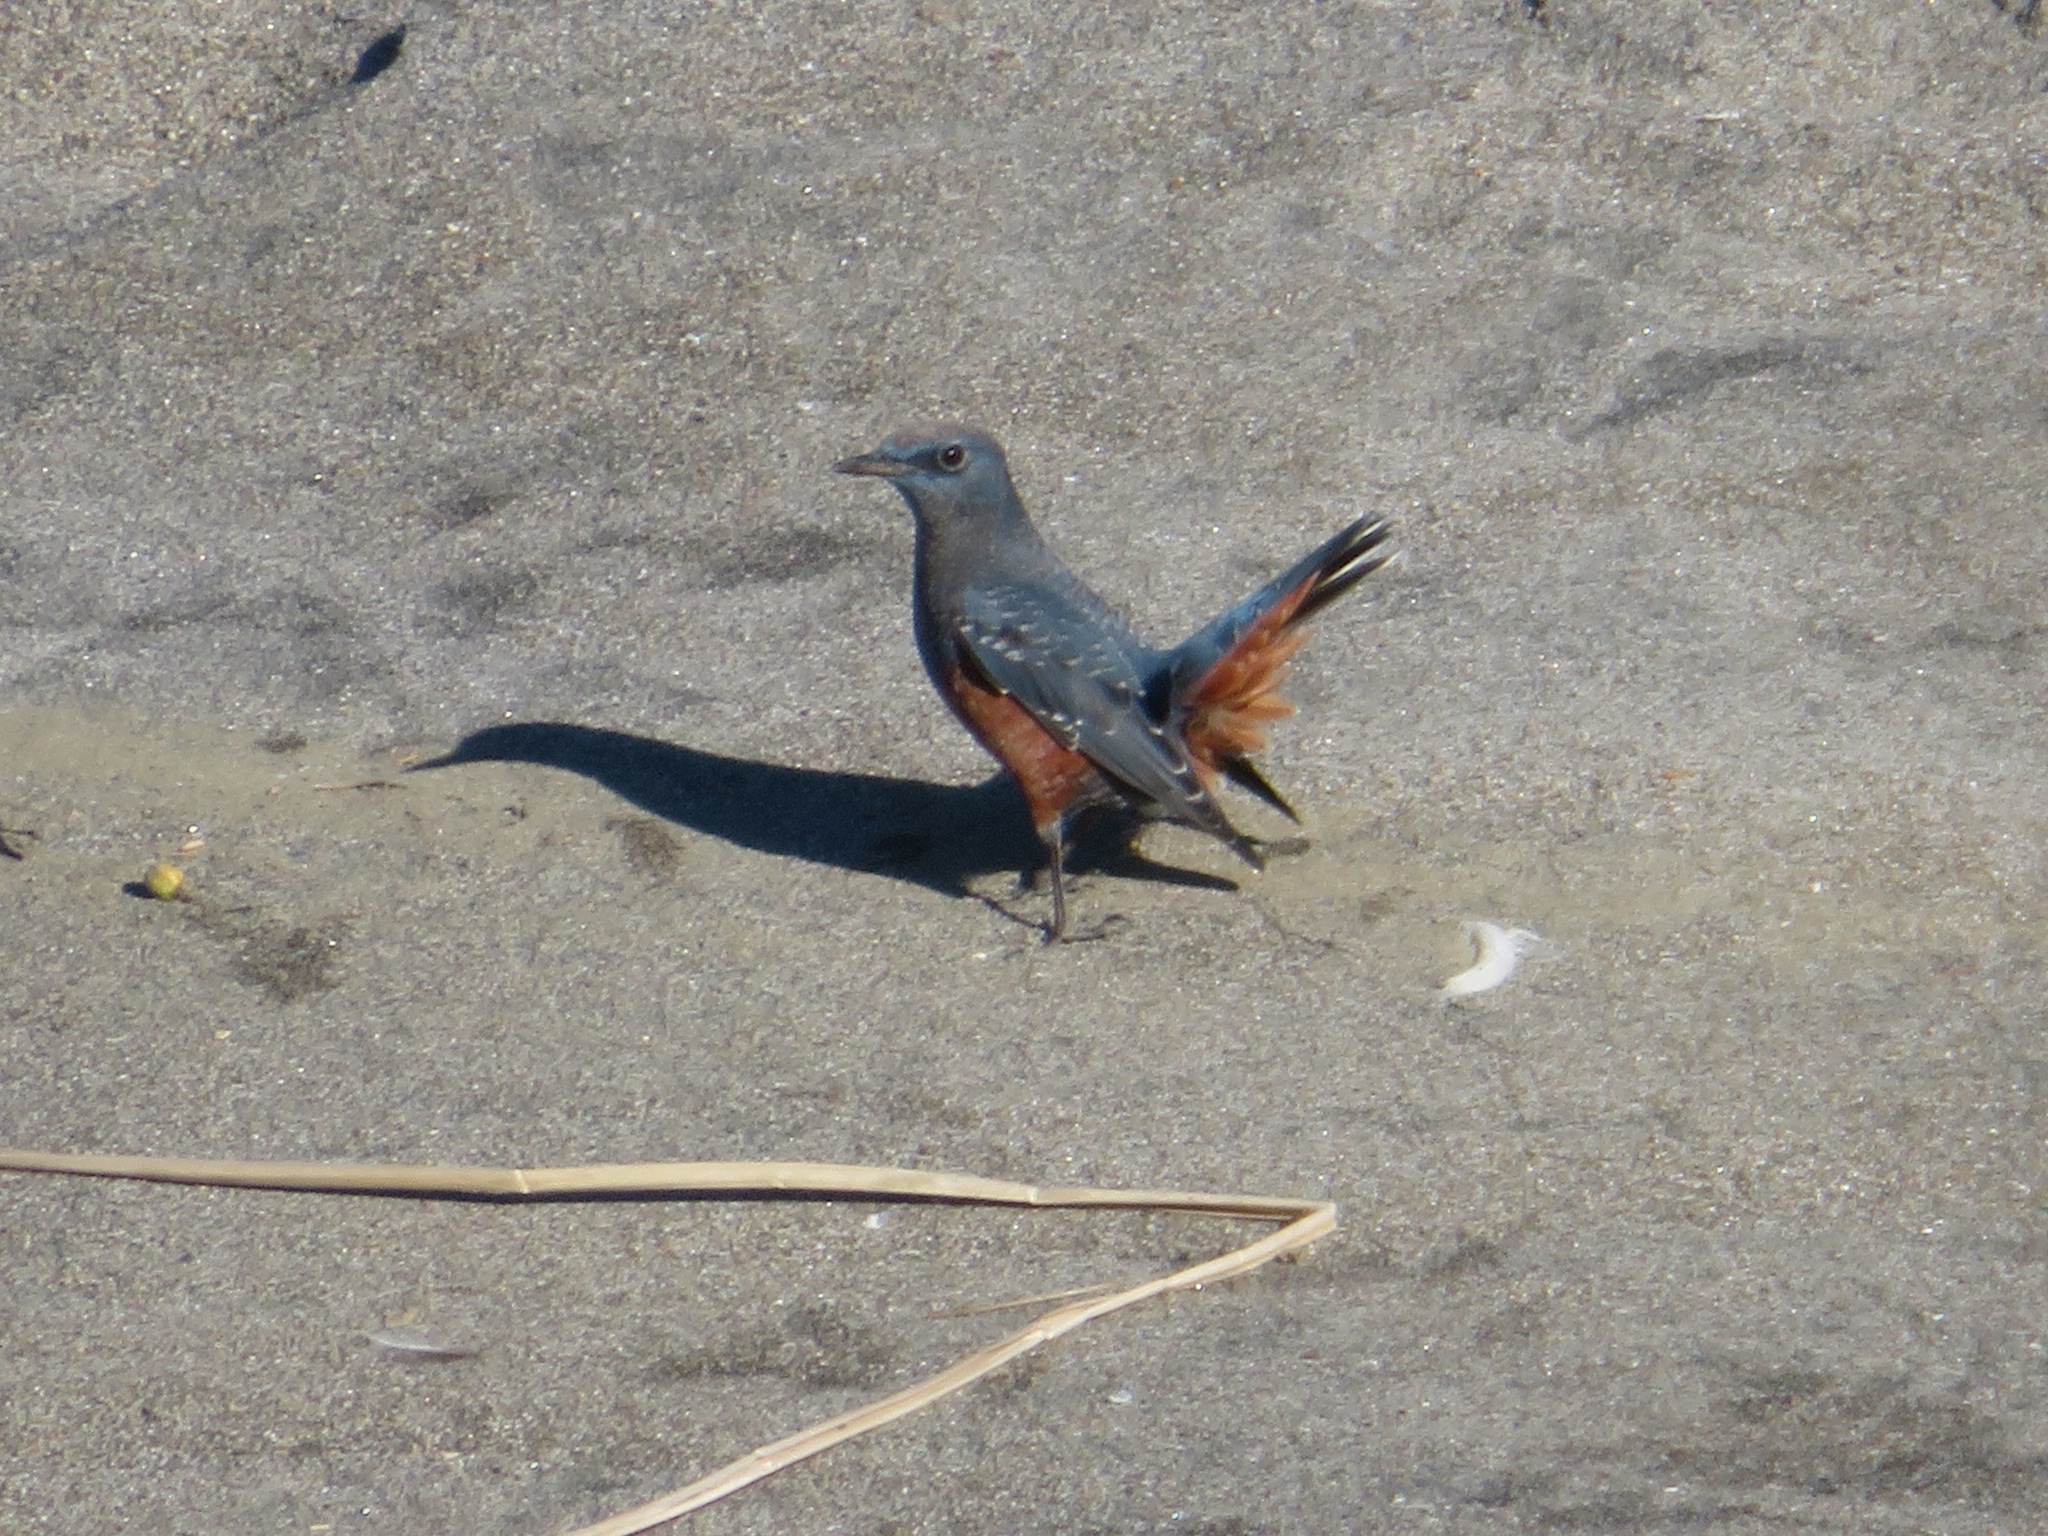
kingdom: Animalia
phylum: Chordata
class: Aves
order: Passeriformes
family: Muscicapidae
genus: Monticola
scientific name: Monticola solitarius
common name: Blue rock thrush
